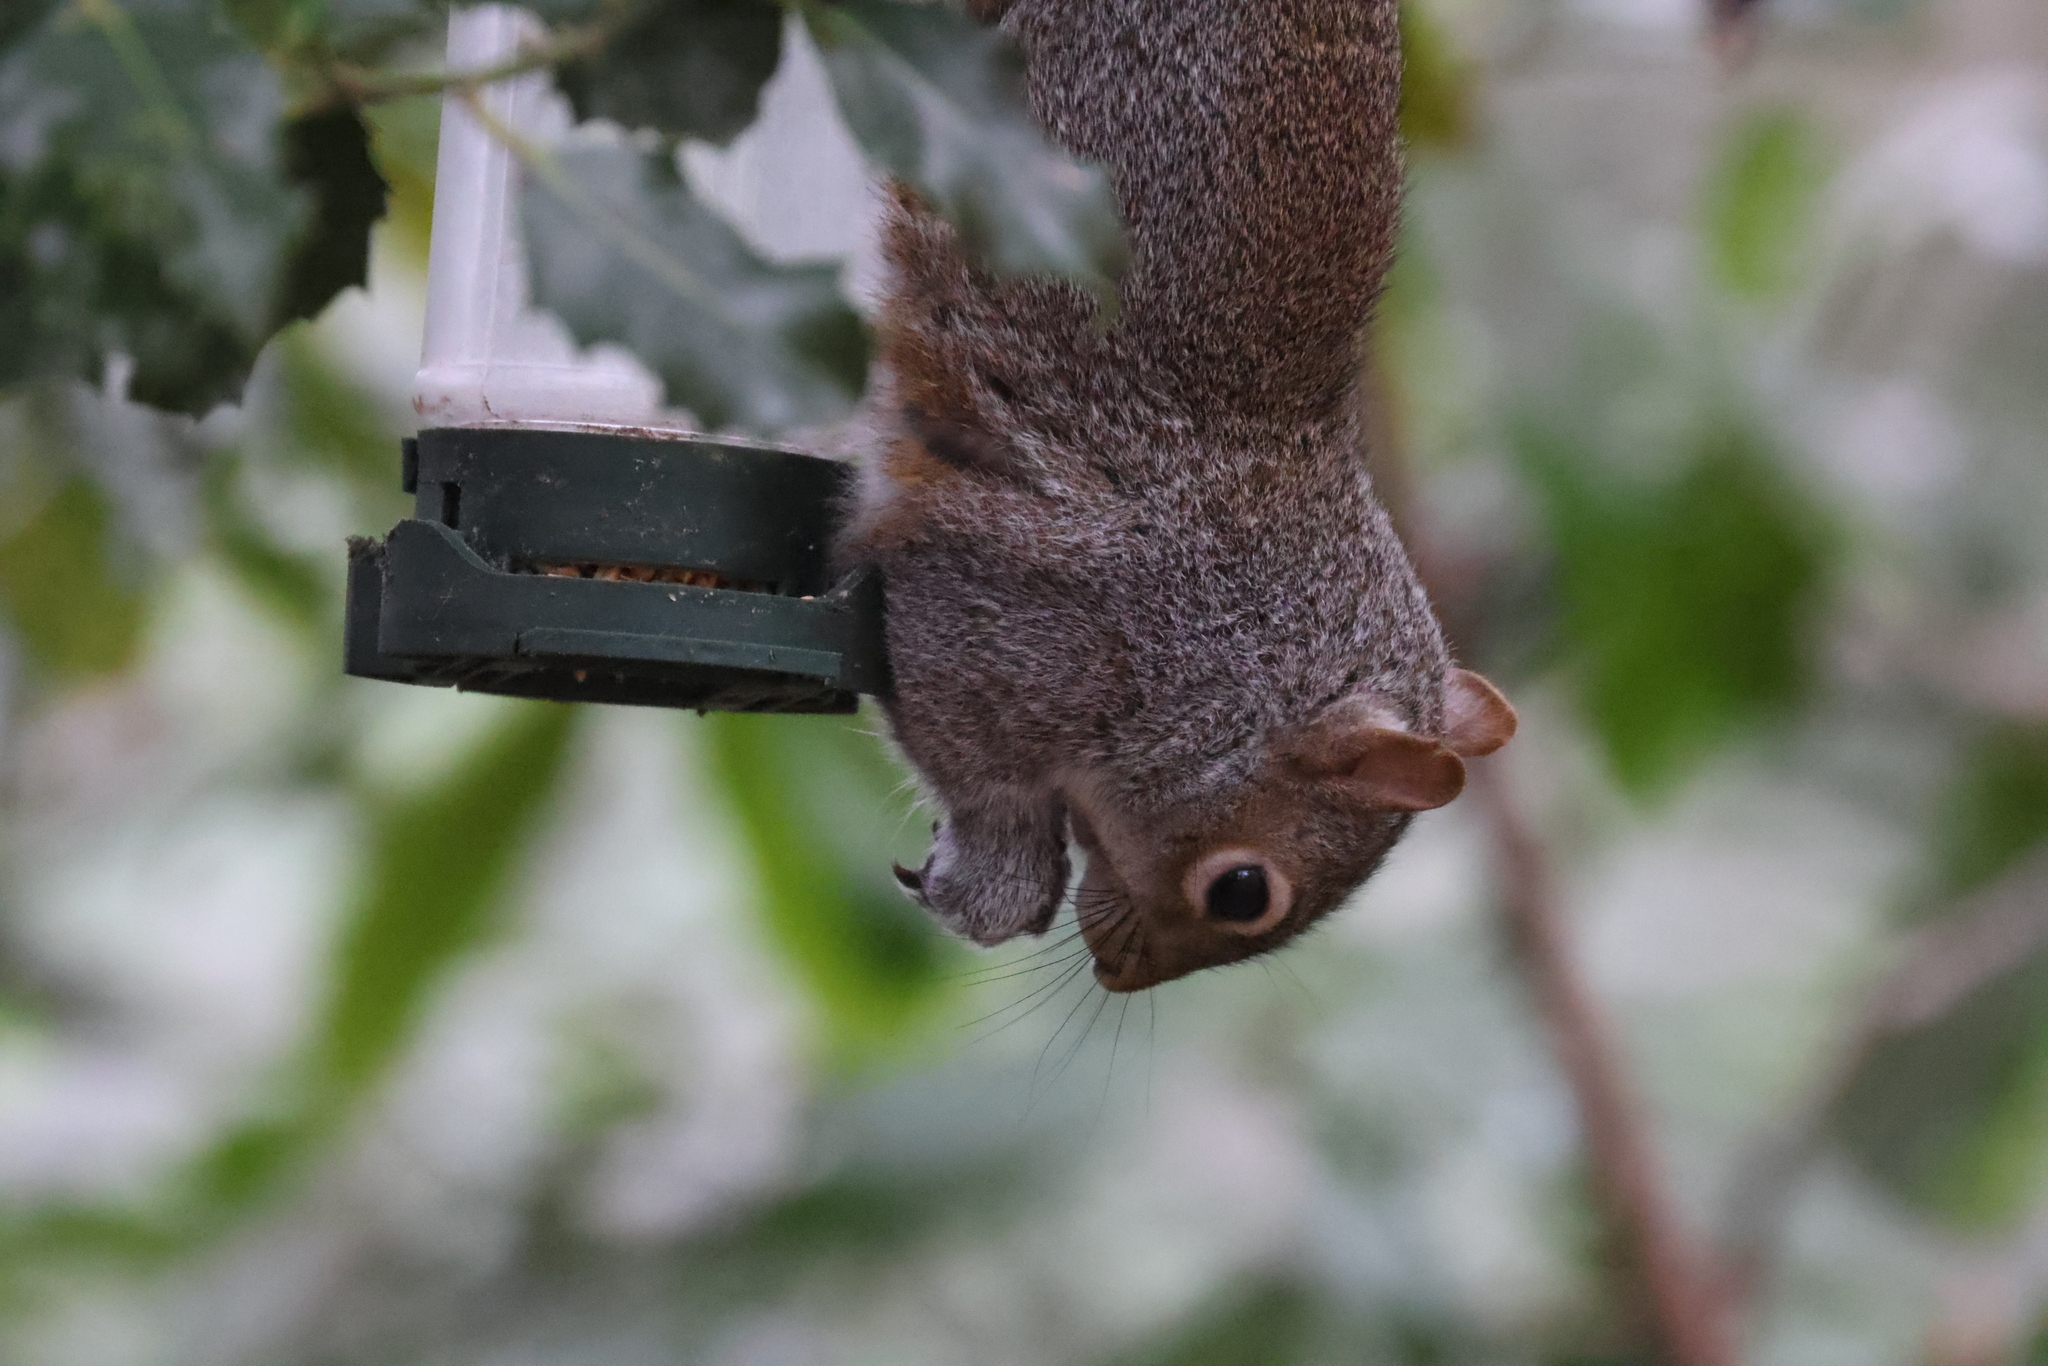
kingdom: Animalia
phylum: Chordata
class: Mammalia
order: Rodentia
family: Sciuridae
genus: Sciurus
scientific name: Sciurus carolinensis
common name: Eastern gray squirrel
